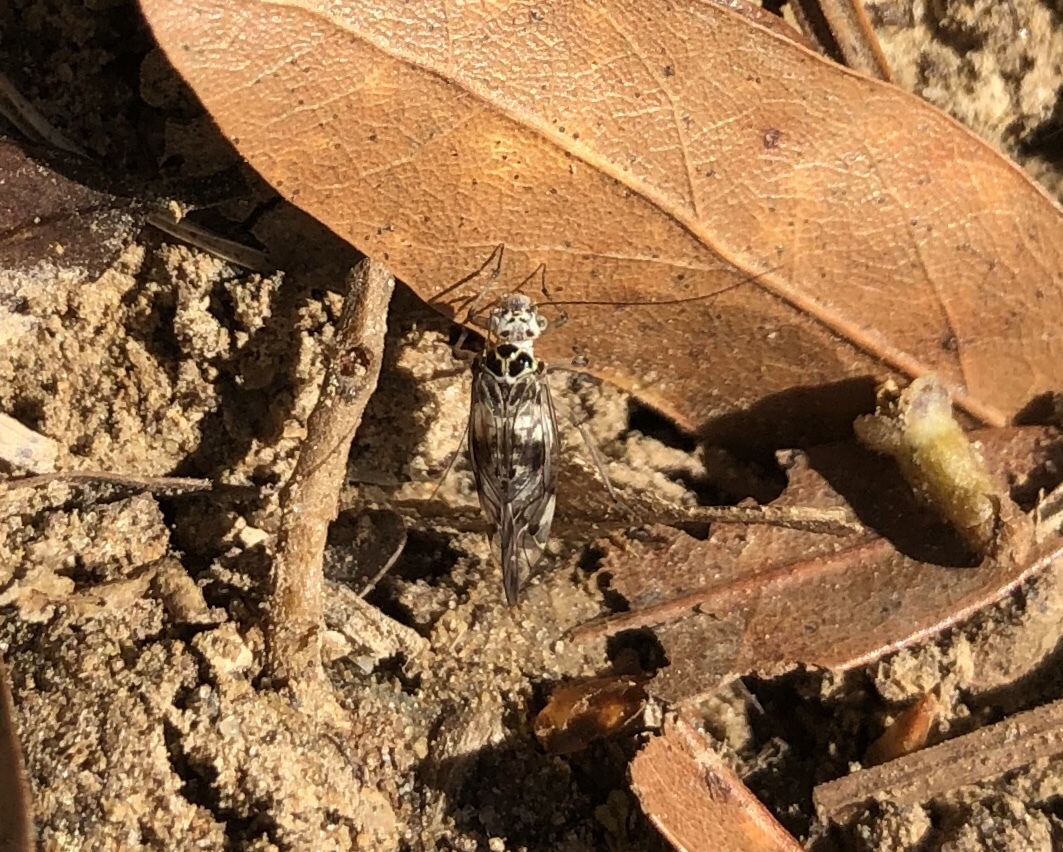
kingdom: Animalia
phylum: Arthropoda
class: Insecta
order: Psocodea
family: Dasydemellidae
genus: Teliapsocus
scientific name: Teliapsocus conterminus
